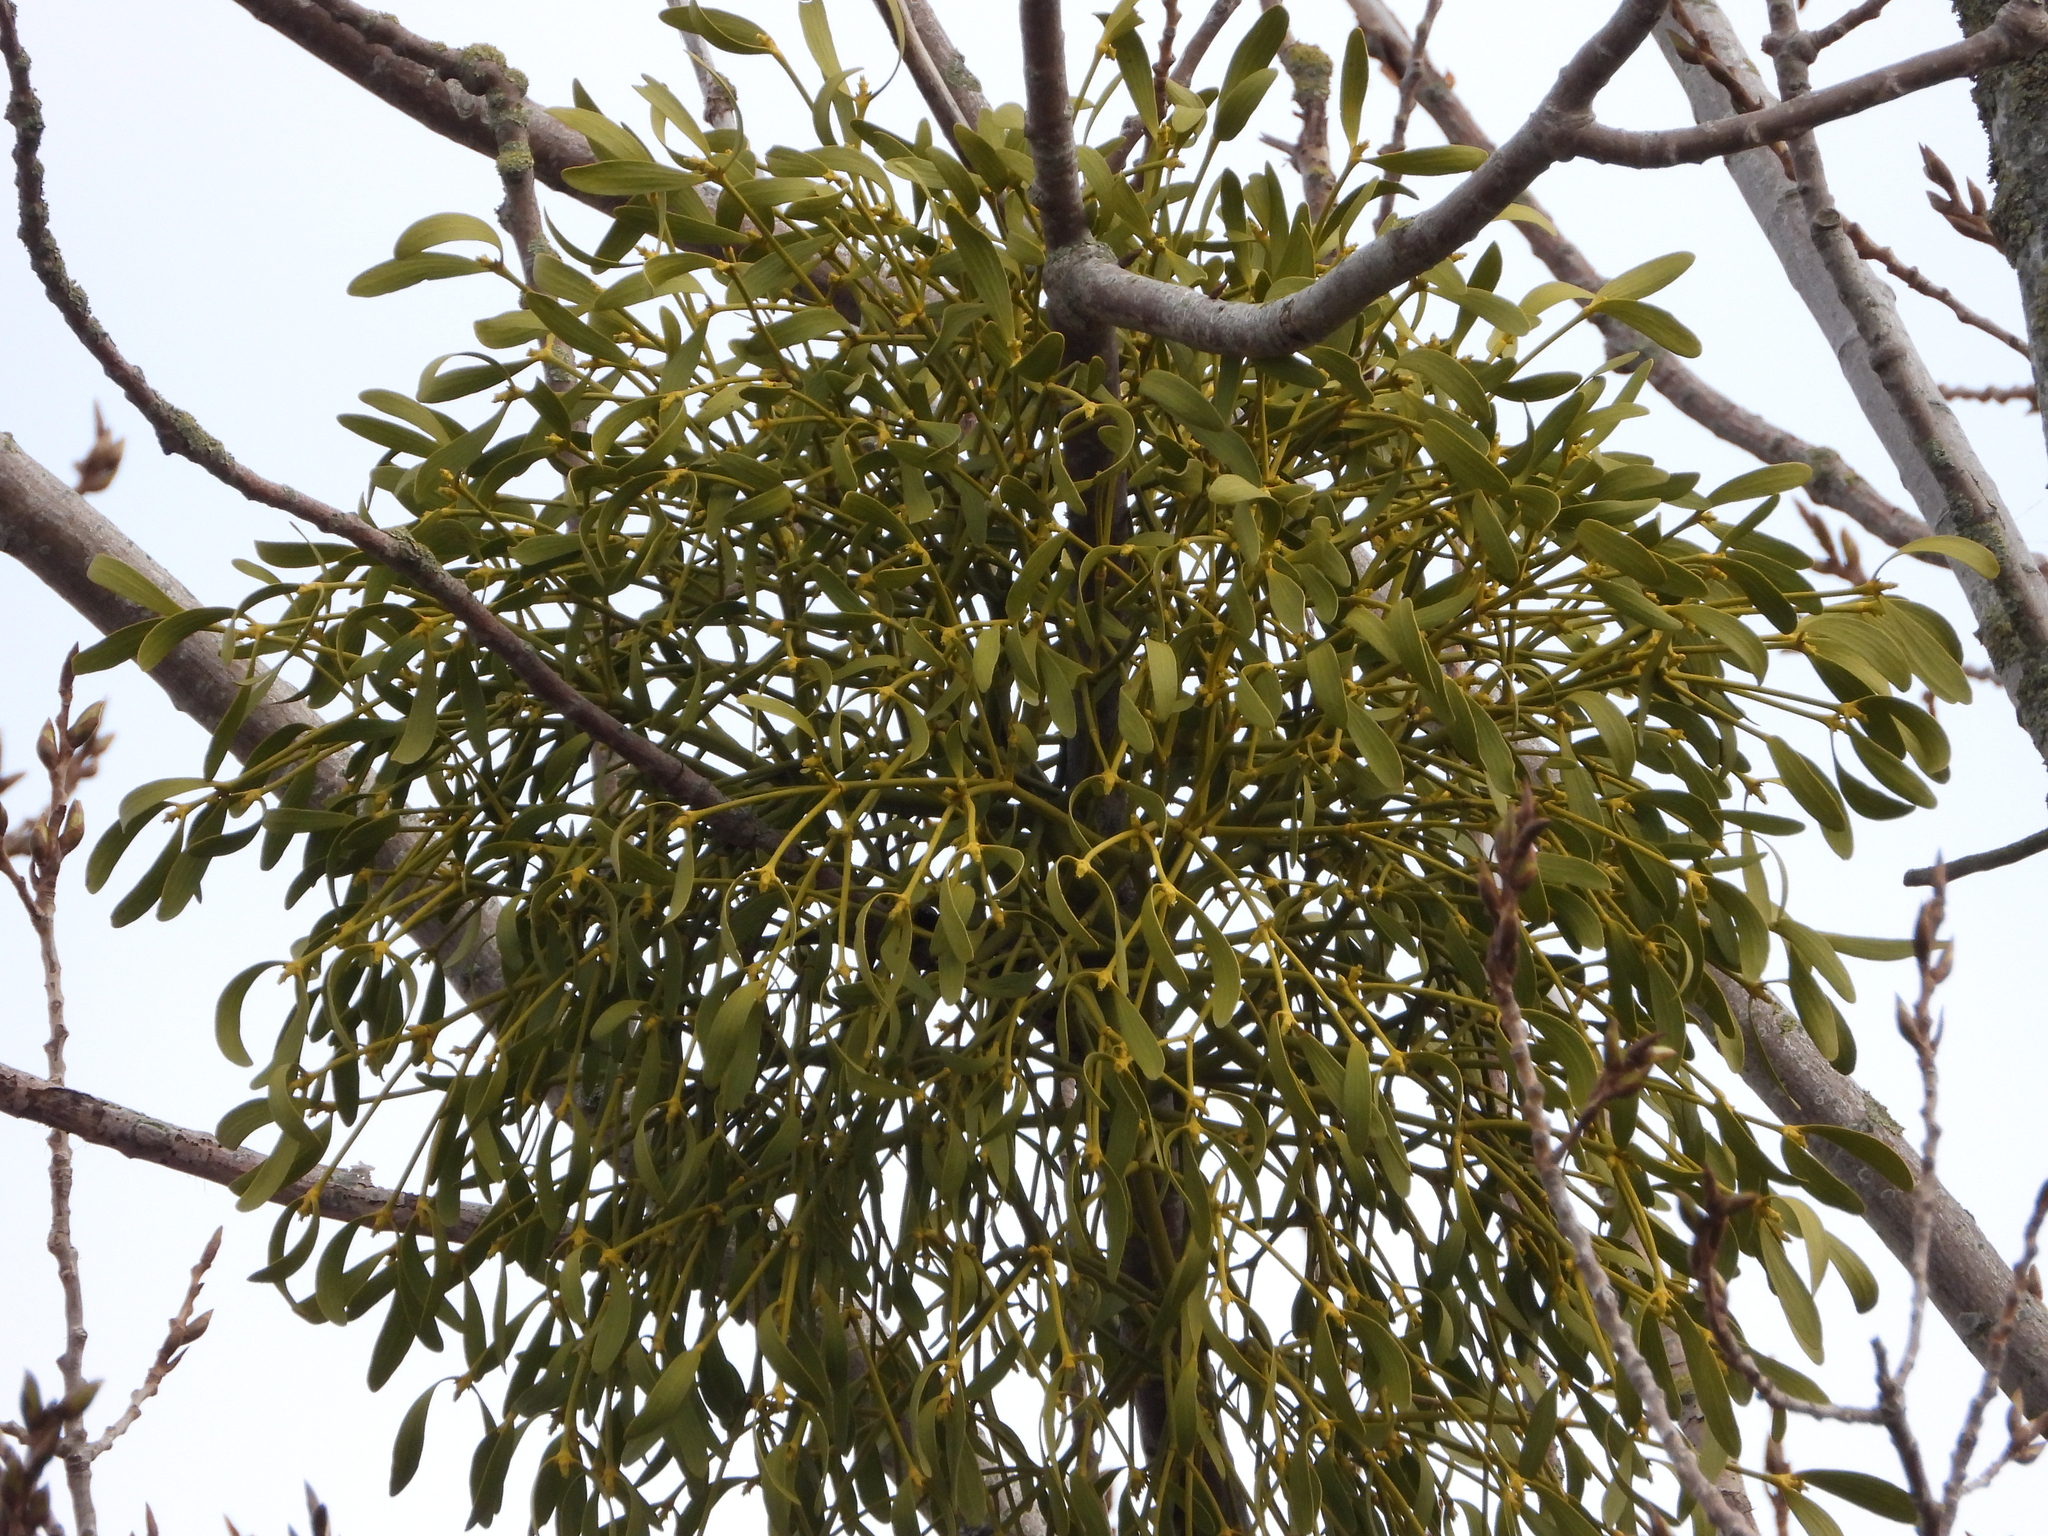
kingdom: Plantae
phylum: Tracheophyta
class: Magnoliopsida
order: Santalales
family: Viscaceae
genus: Viscum
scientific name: Viscum album
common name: Mistletoe
